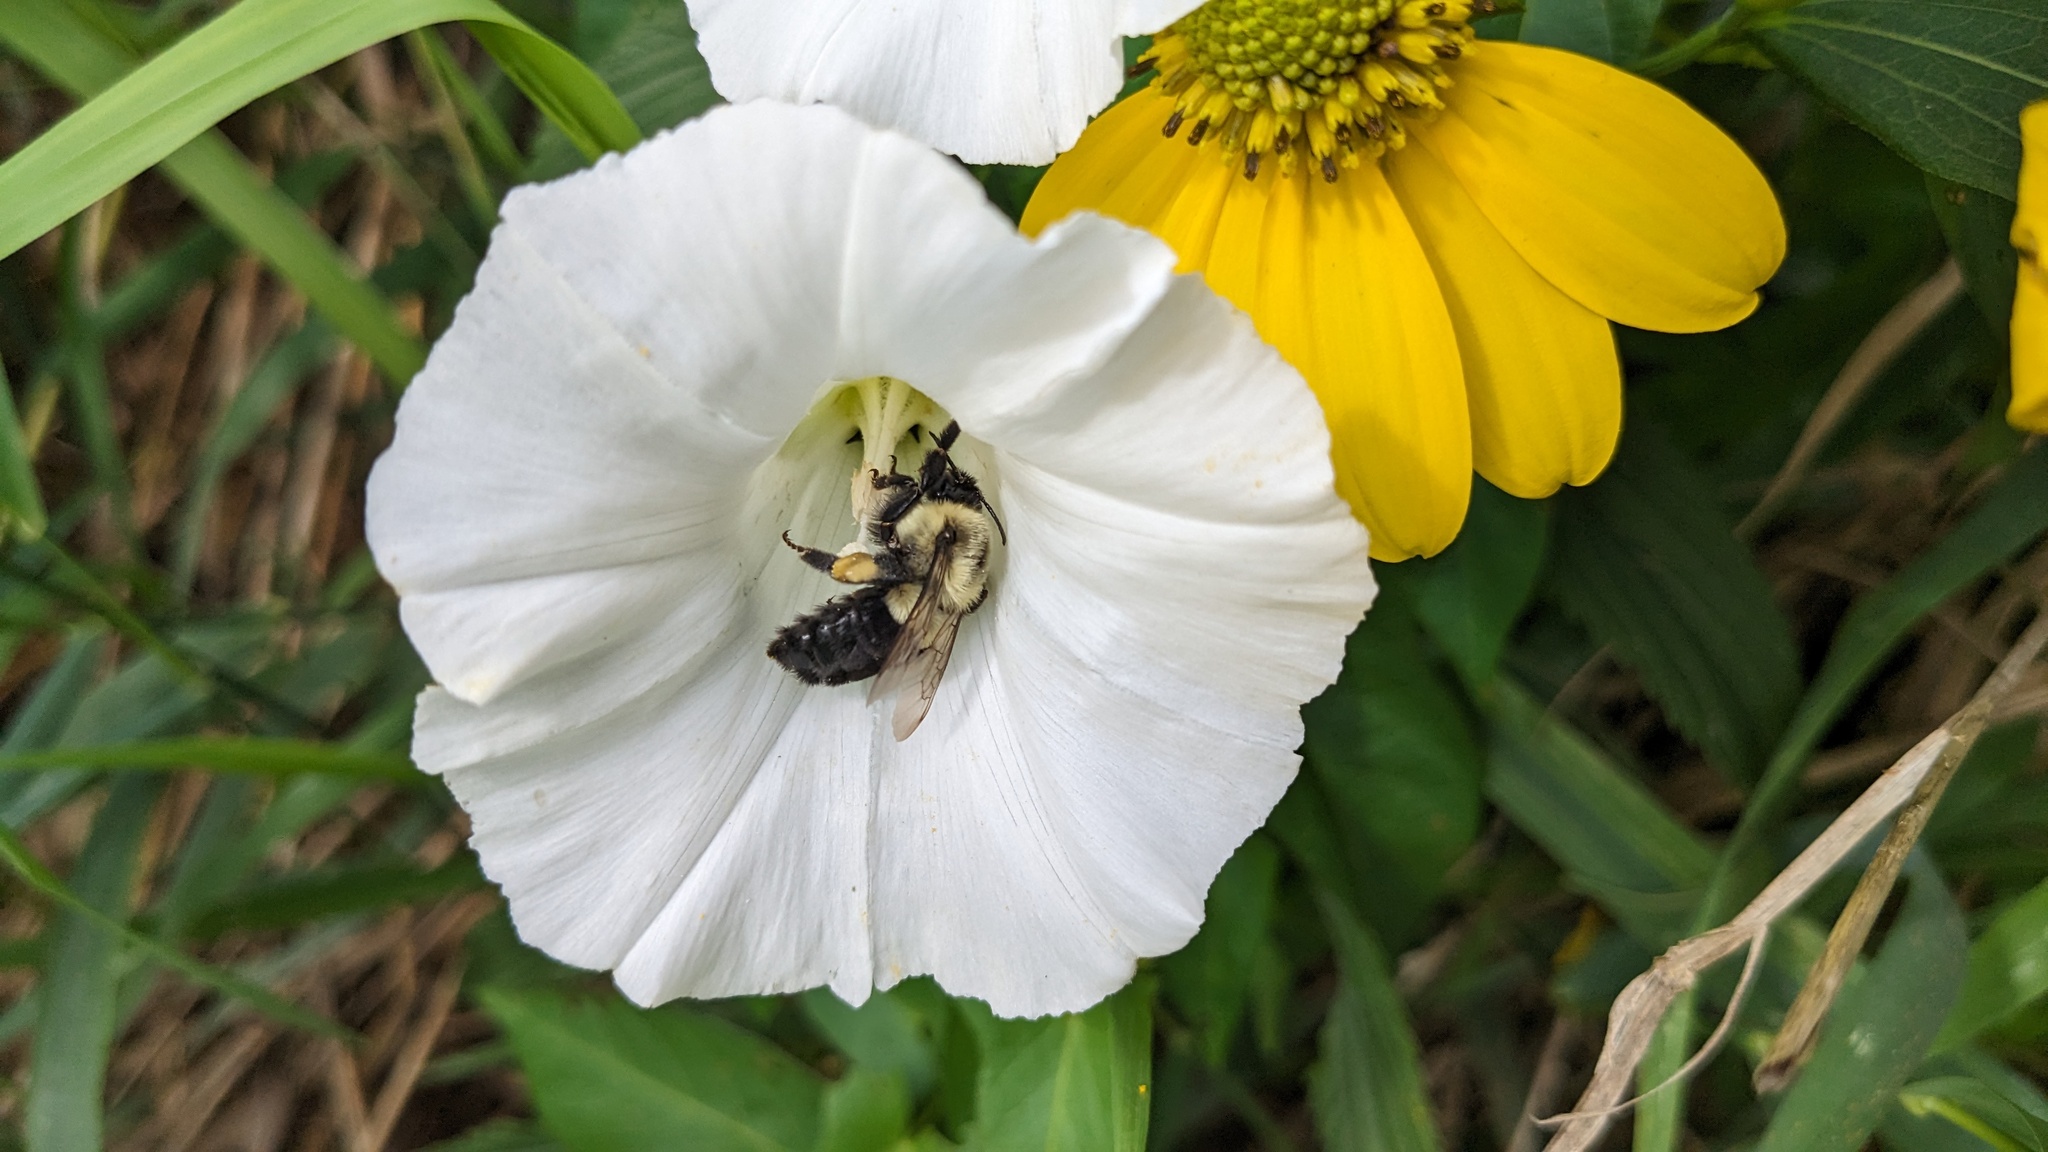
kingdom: Animalia
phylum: Arthropoda
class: Insecta
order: Hymenoptera
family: Apidae
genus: Bombus
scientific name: Bombus impatiens
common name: Common eastern bumble bee
